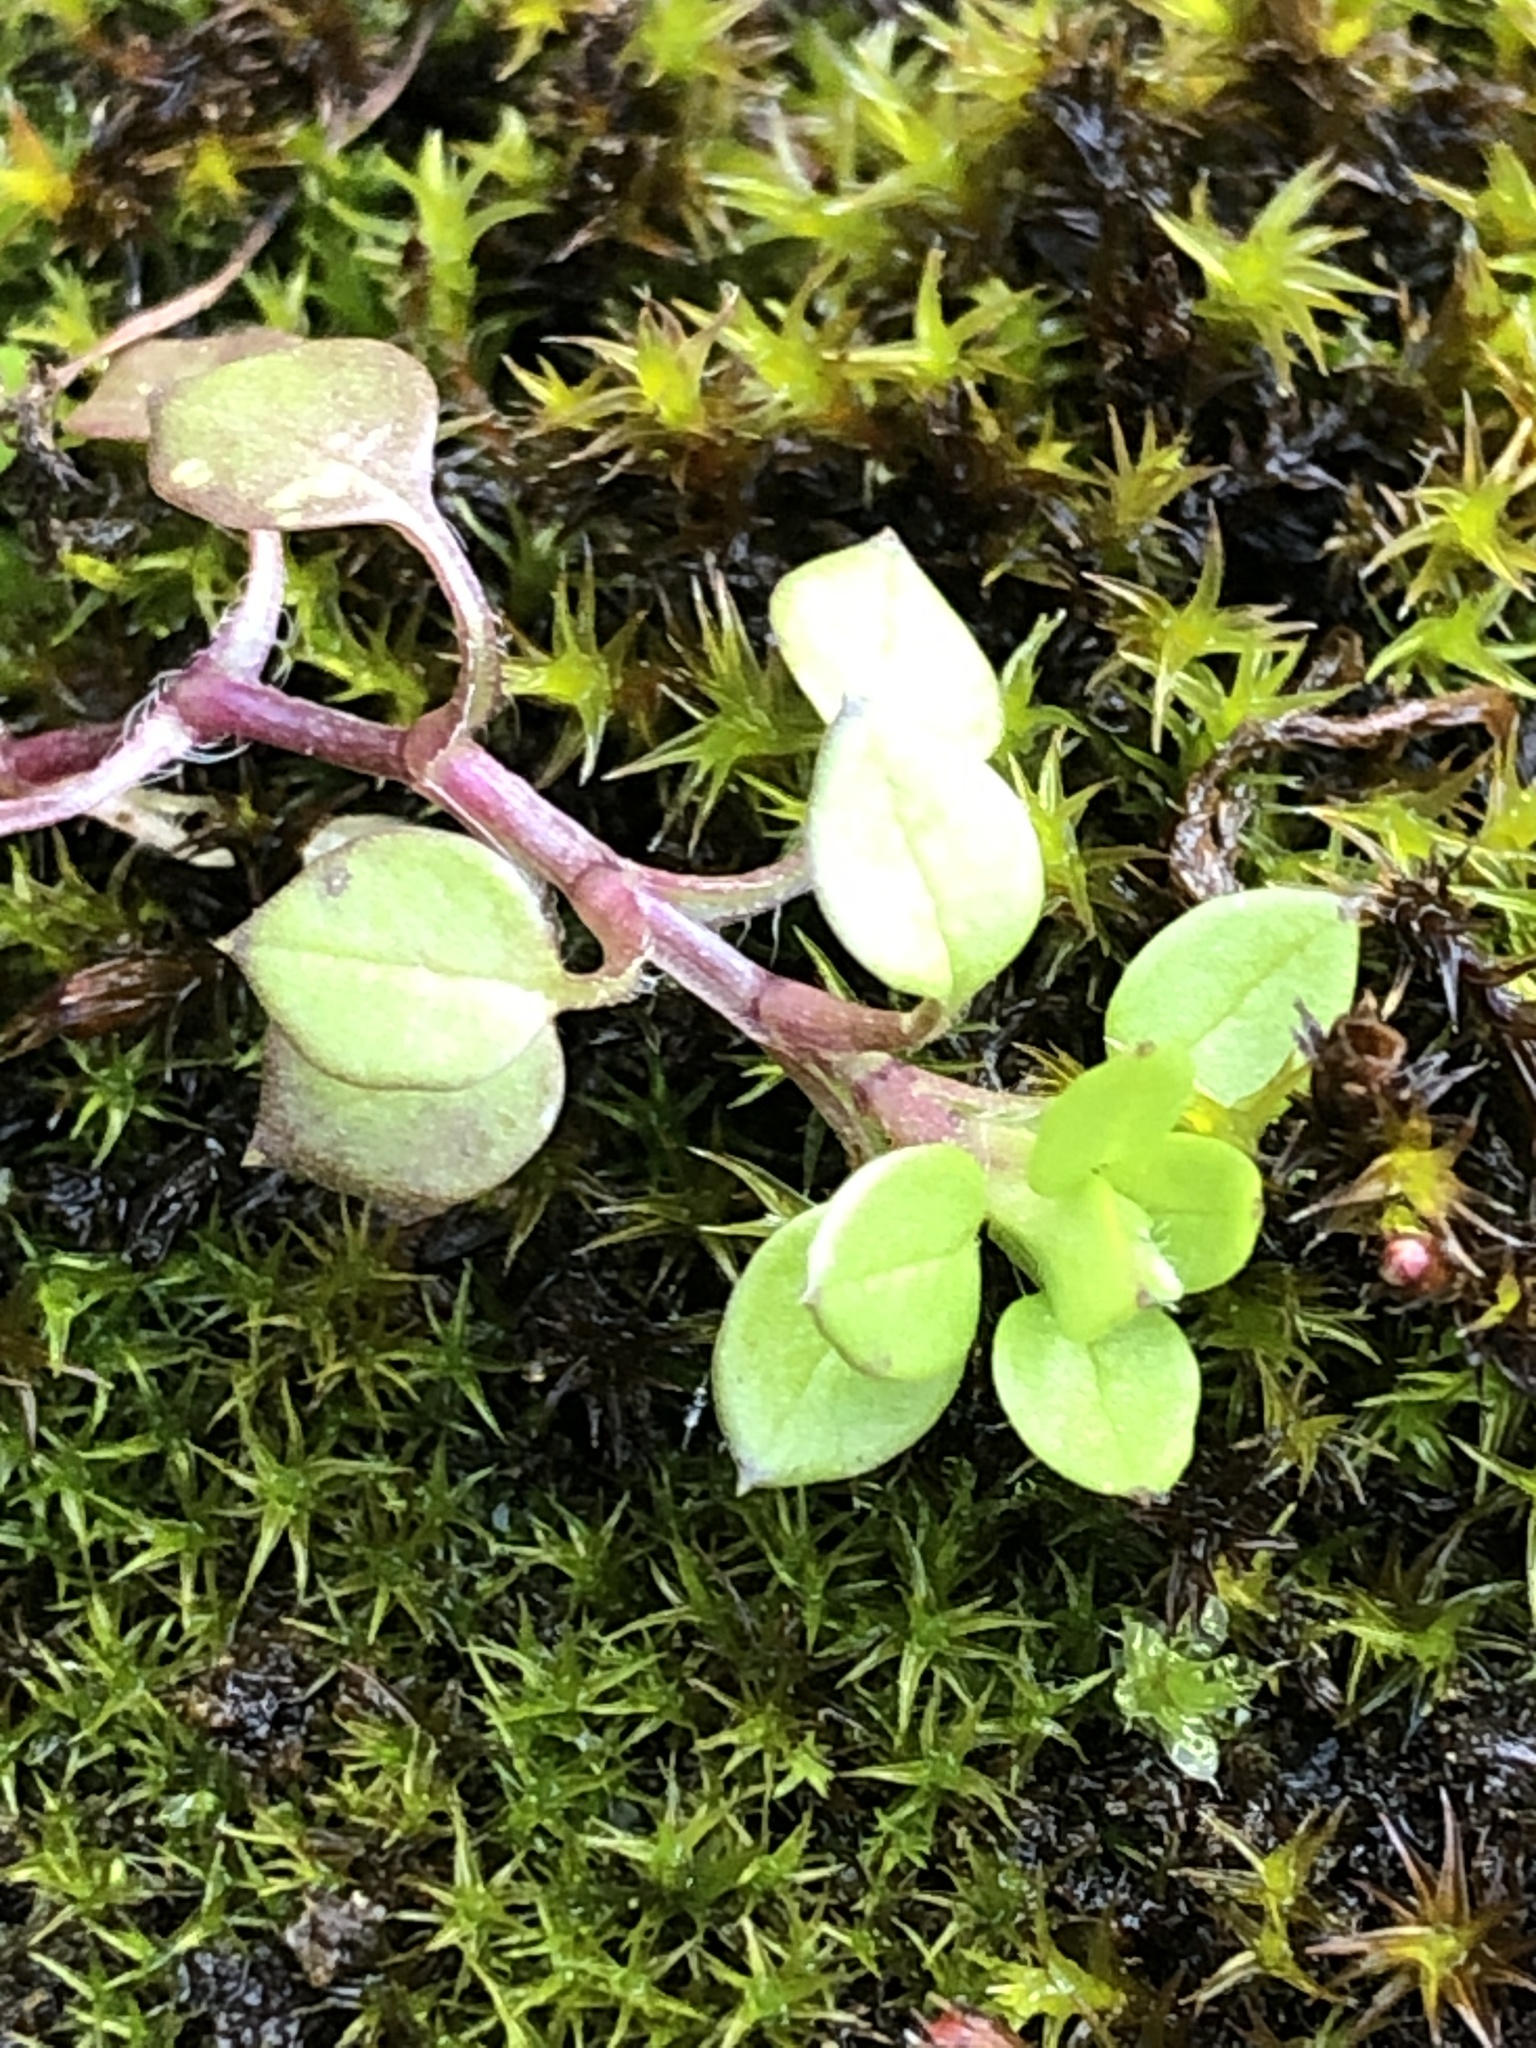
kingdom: Plantae
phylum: Tracheophyta
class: Magnoliopsida
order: Caryophyllales
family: Caryophyllaceae
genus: Stellaria
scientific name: Stellaria media
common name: Common chickweed
